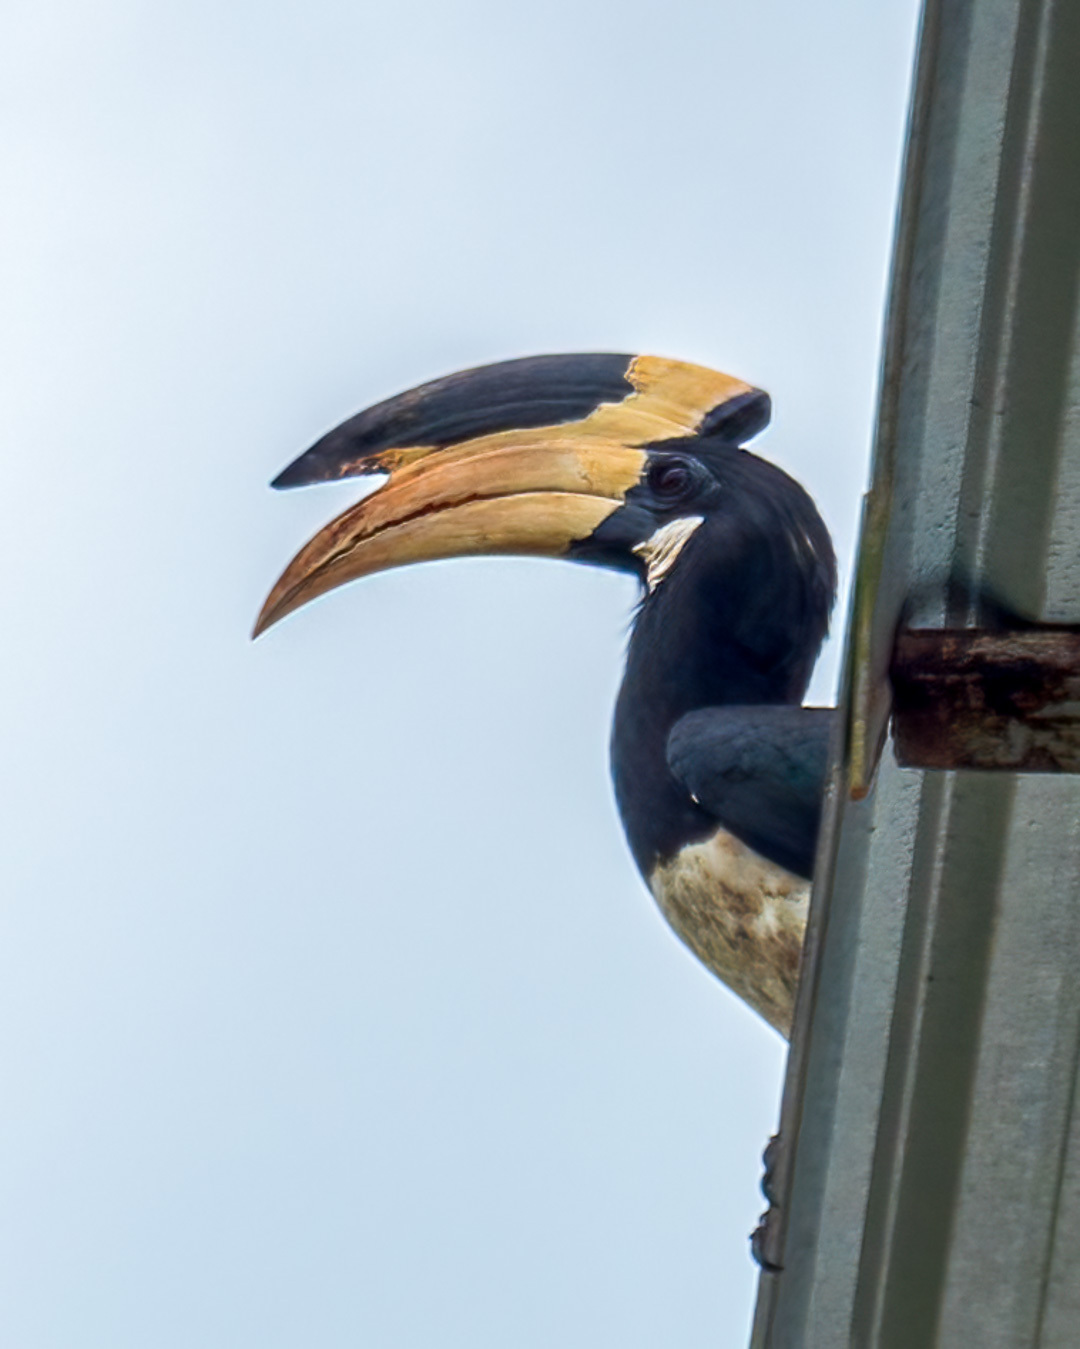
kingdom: Animalia
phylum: Chordata
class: Aves
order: Bucerotiformes
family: Bucerotidae
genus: Anthracoceros
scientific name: Anthracoceros coronatus
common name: Malabar pied hornbill
